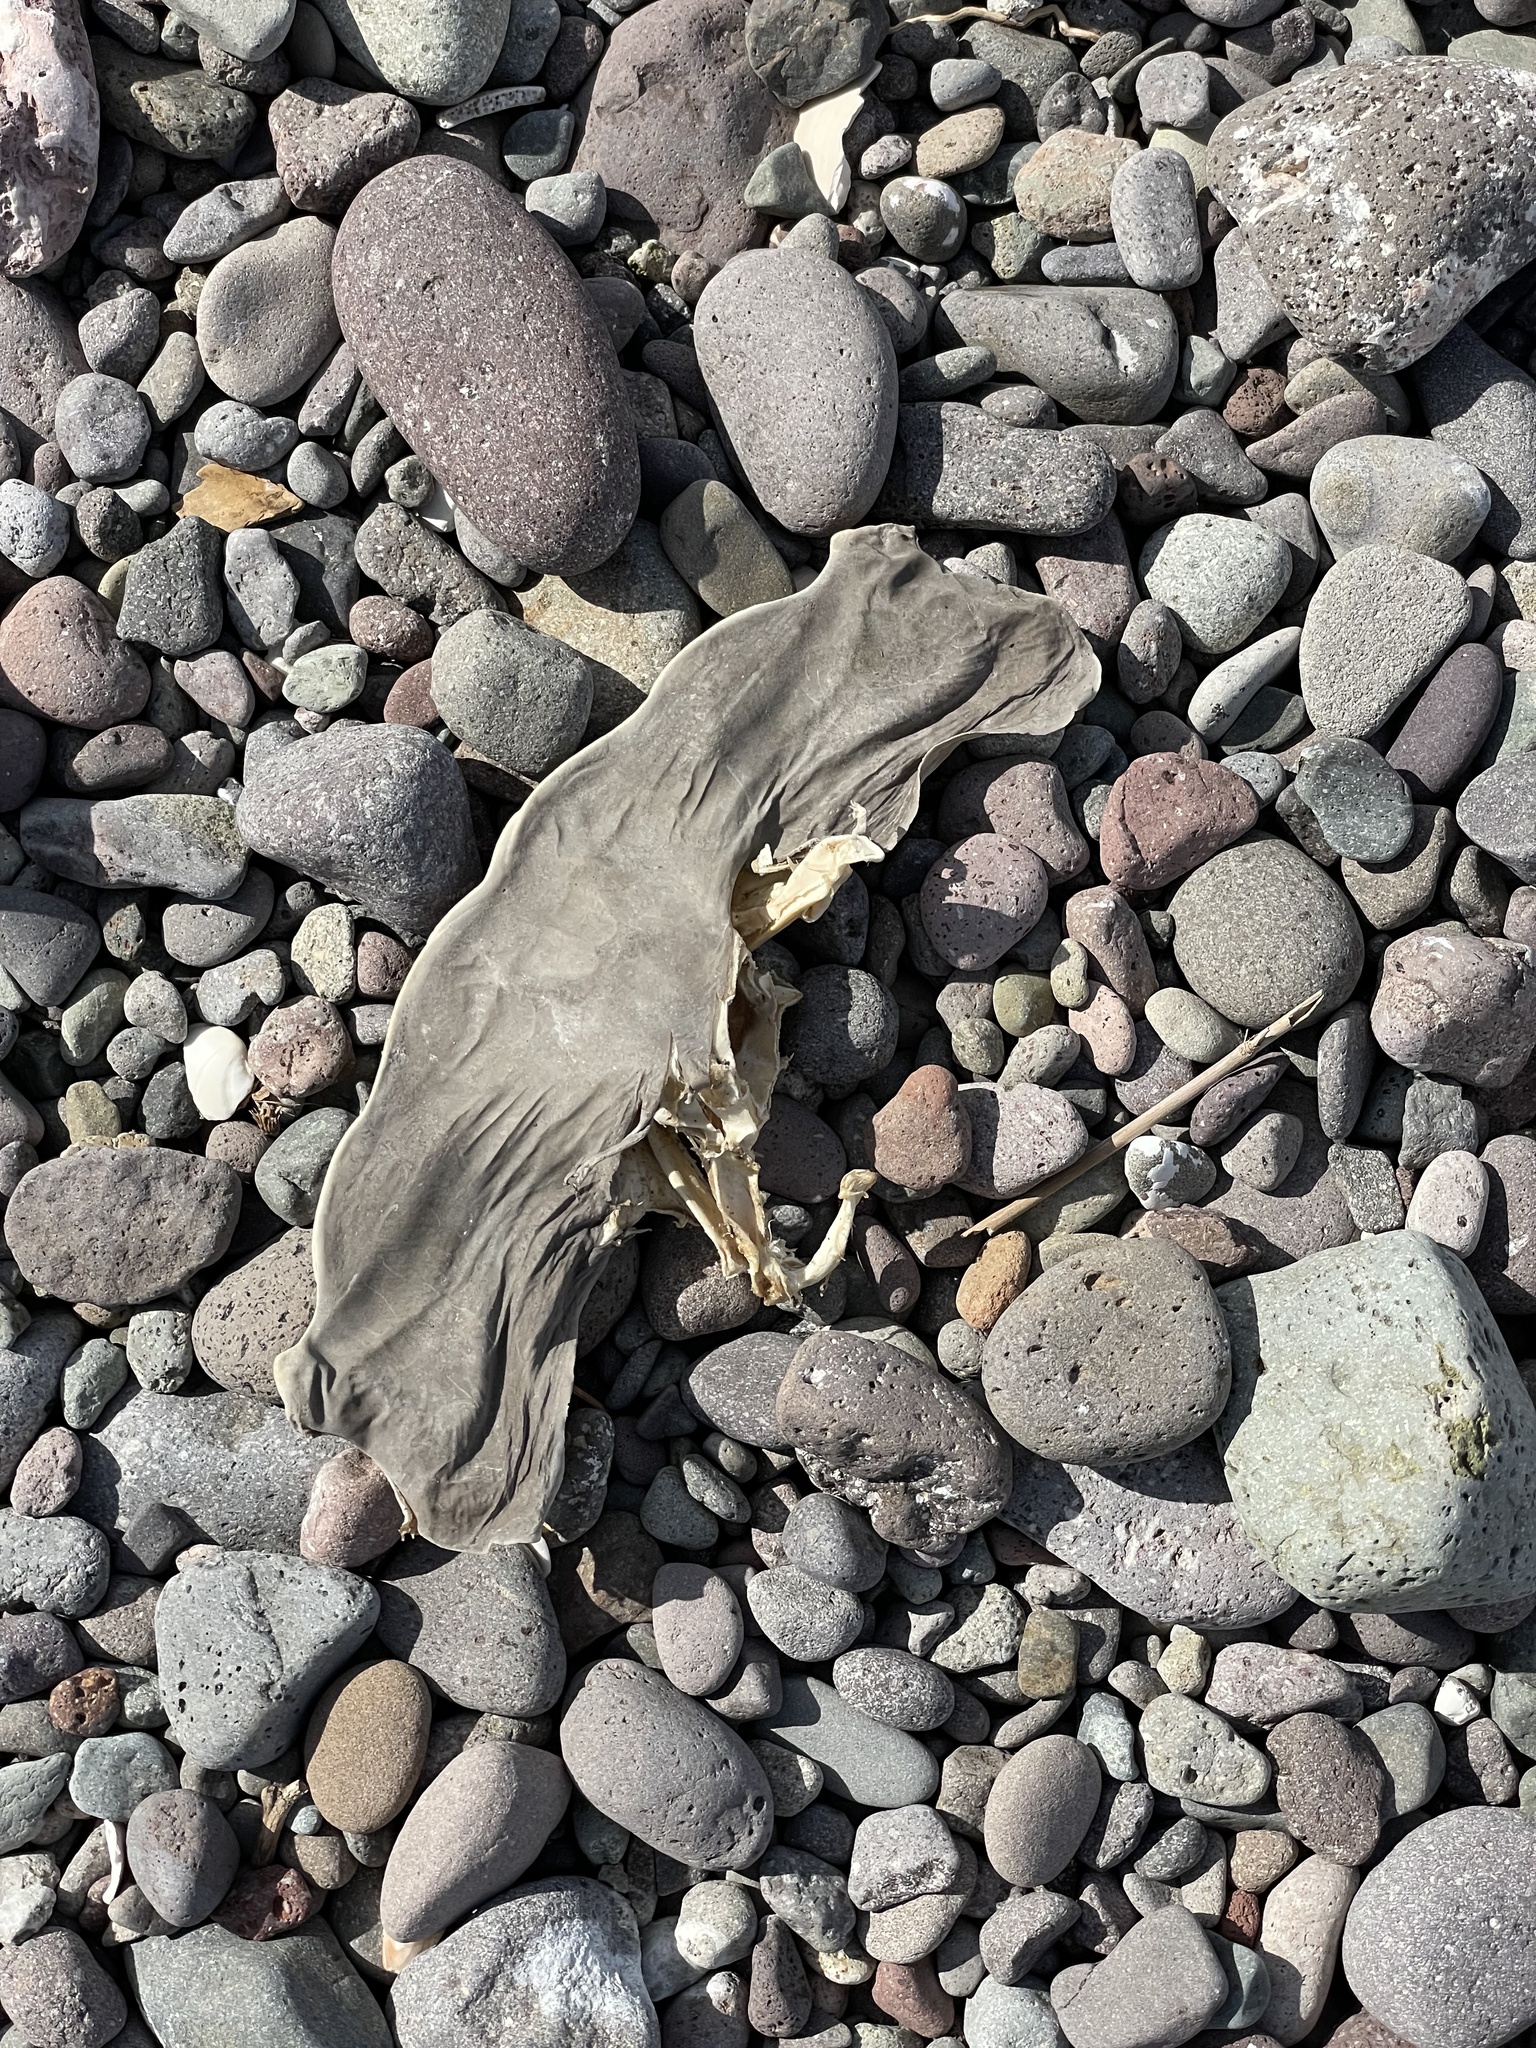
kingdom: Animalia
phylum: Chordata
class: Elasmobranchii
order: Carcharhiniformes
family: Sphyrnidae
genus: Sphyrna
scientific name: Sphyrna lewini
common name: Scalloped hammerhead
